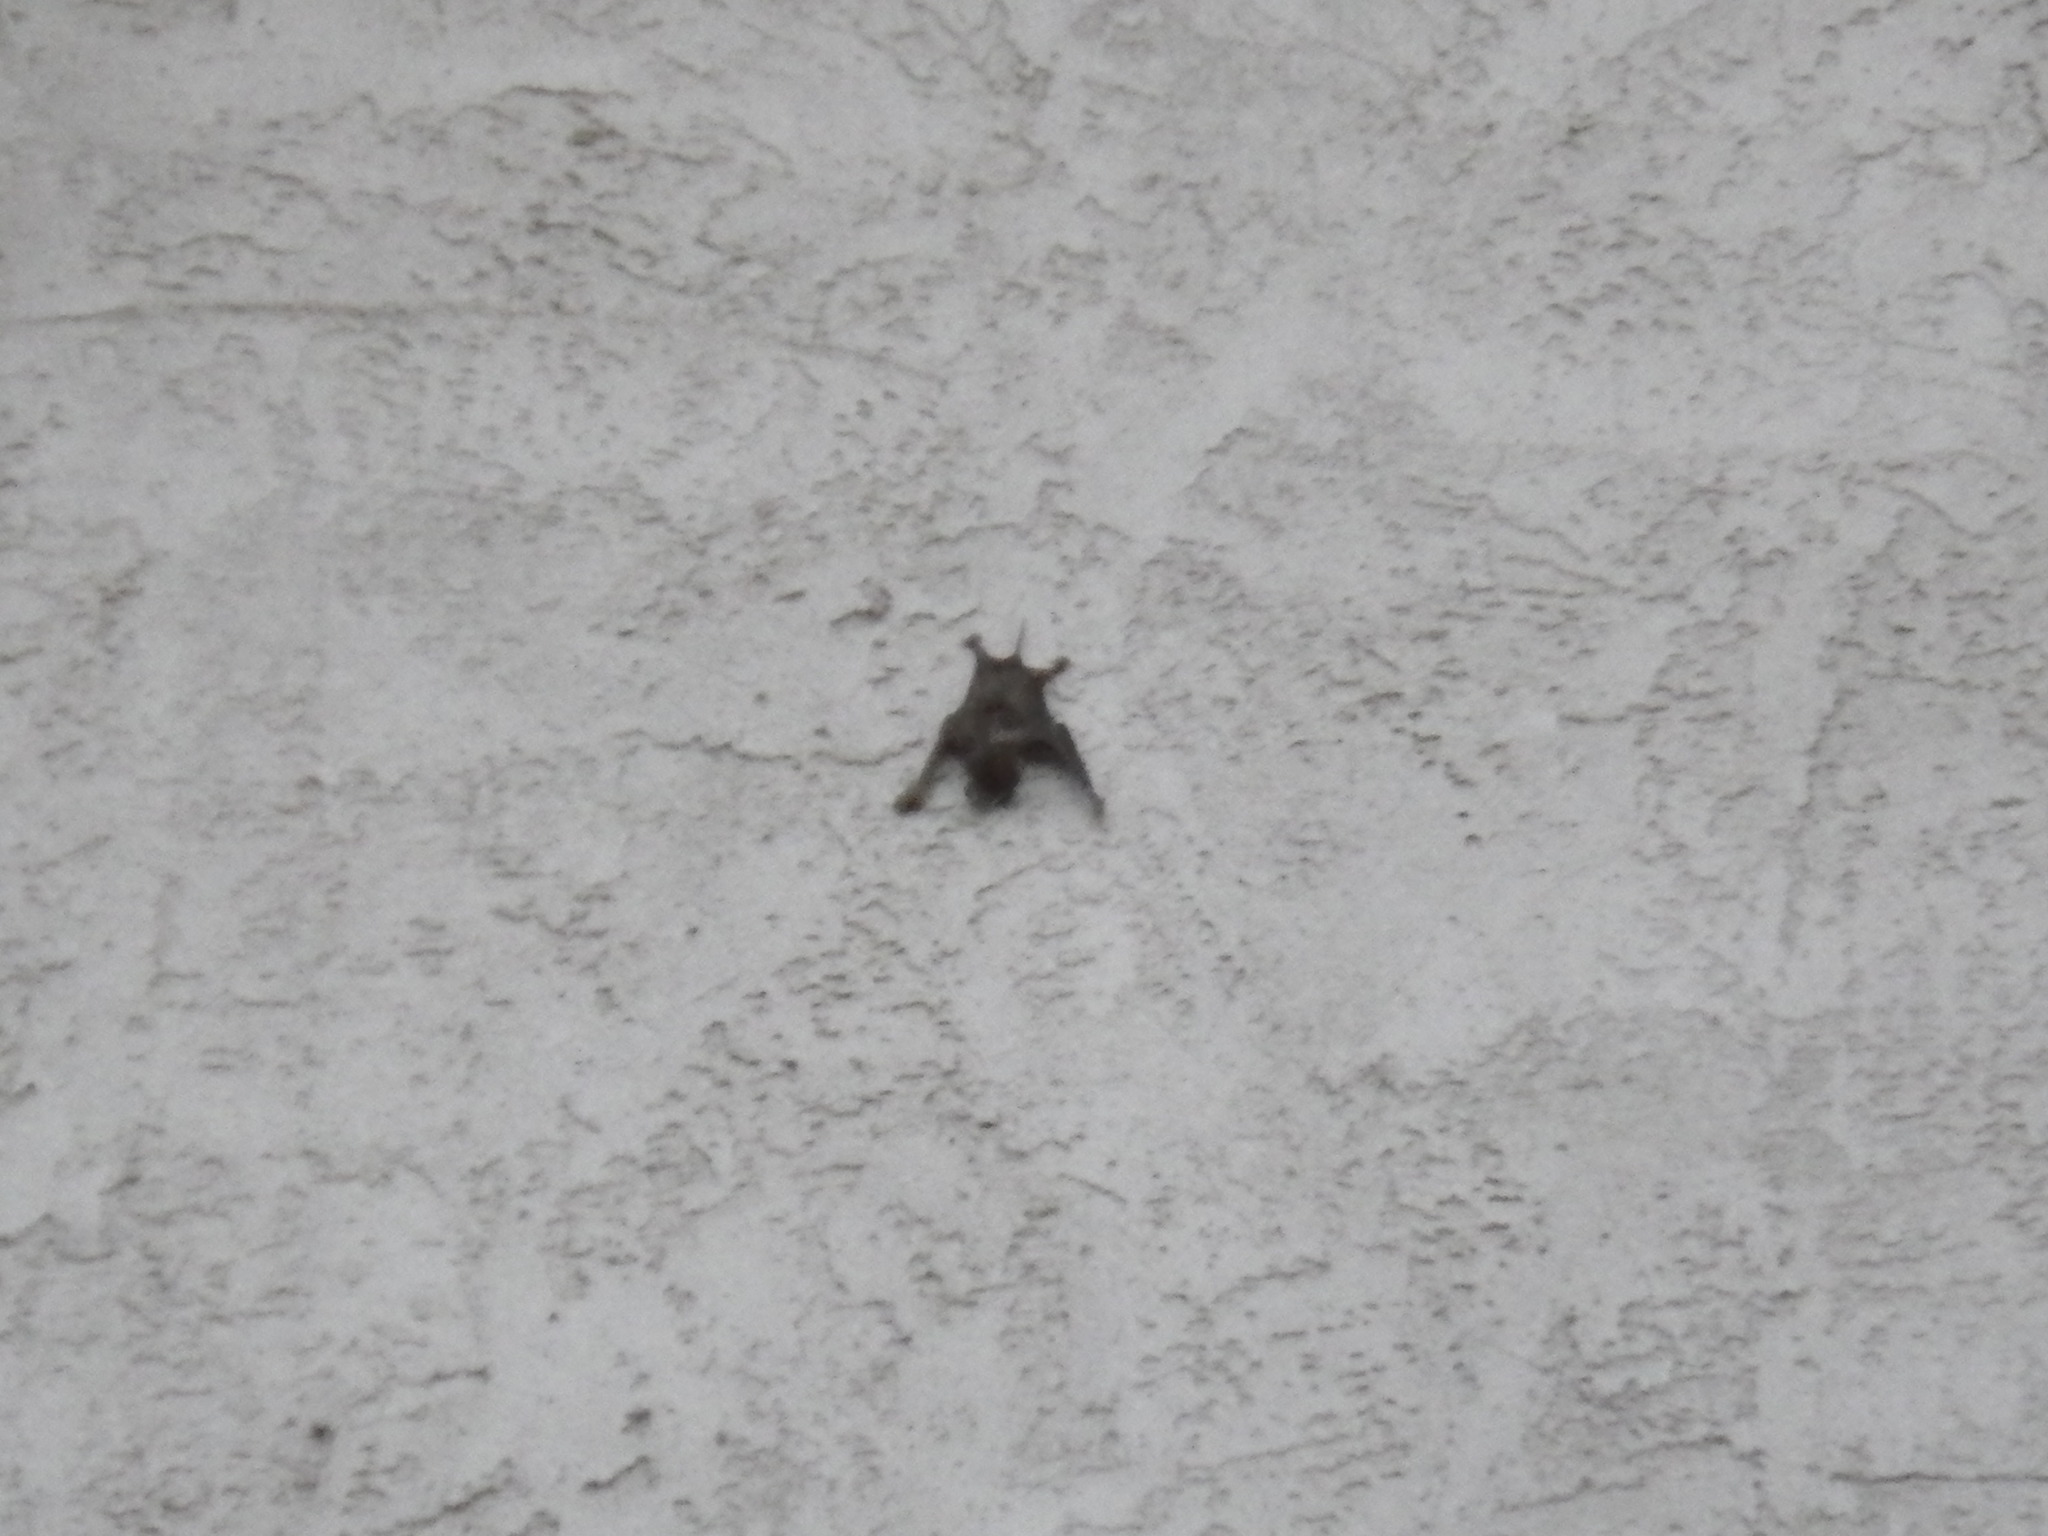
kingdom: Animalia
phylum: Chordata
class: Mammalia
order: Chiroptera
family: Molossidae
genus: Tadarida
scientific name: Tadarida brasiliensis
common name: Mexican free-tailed bat
